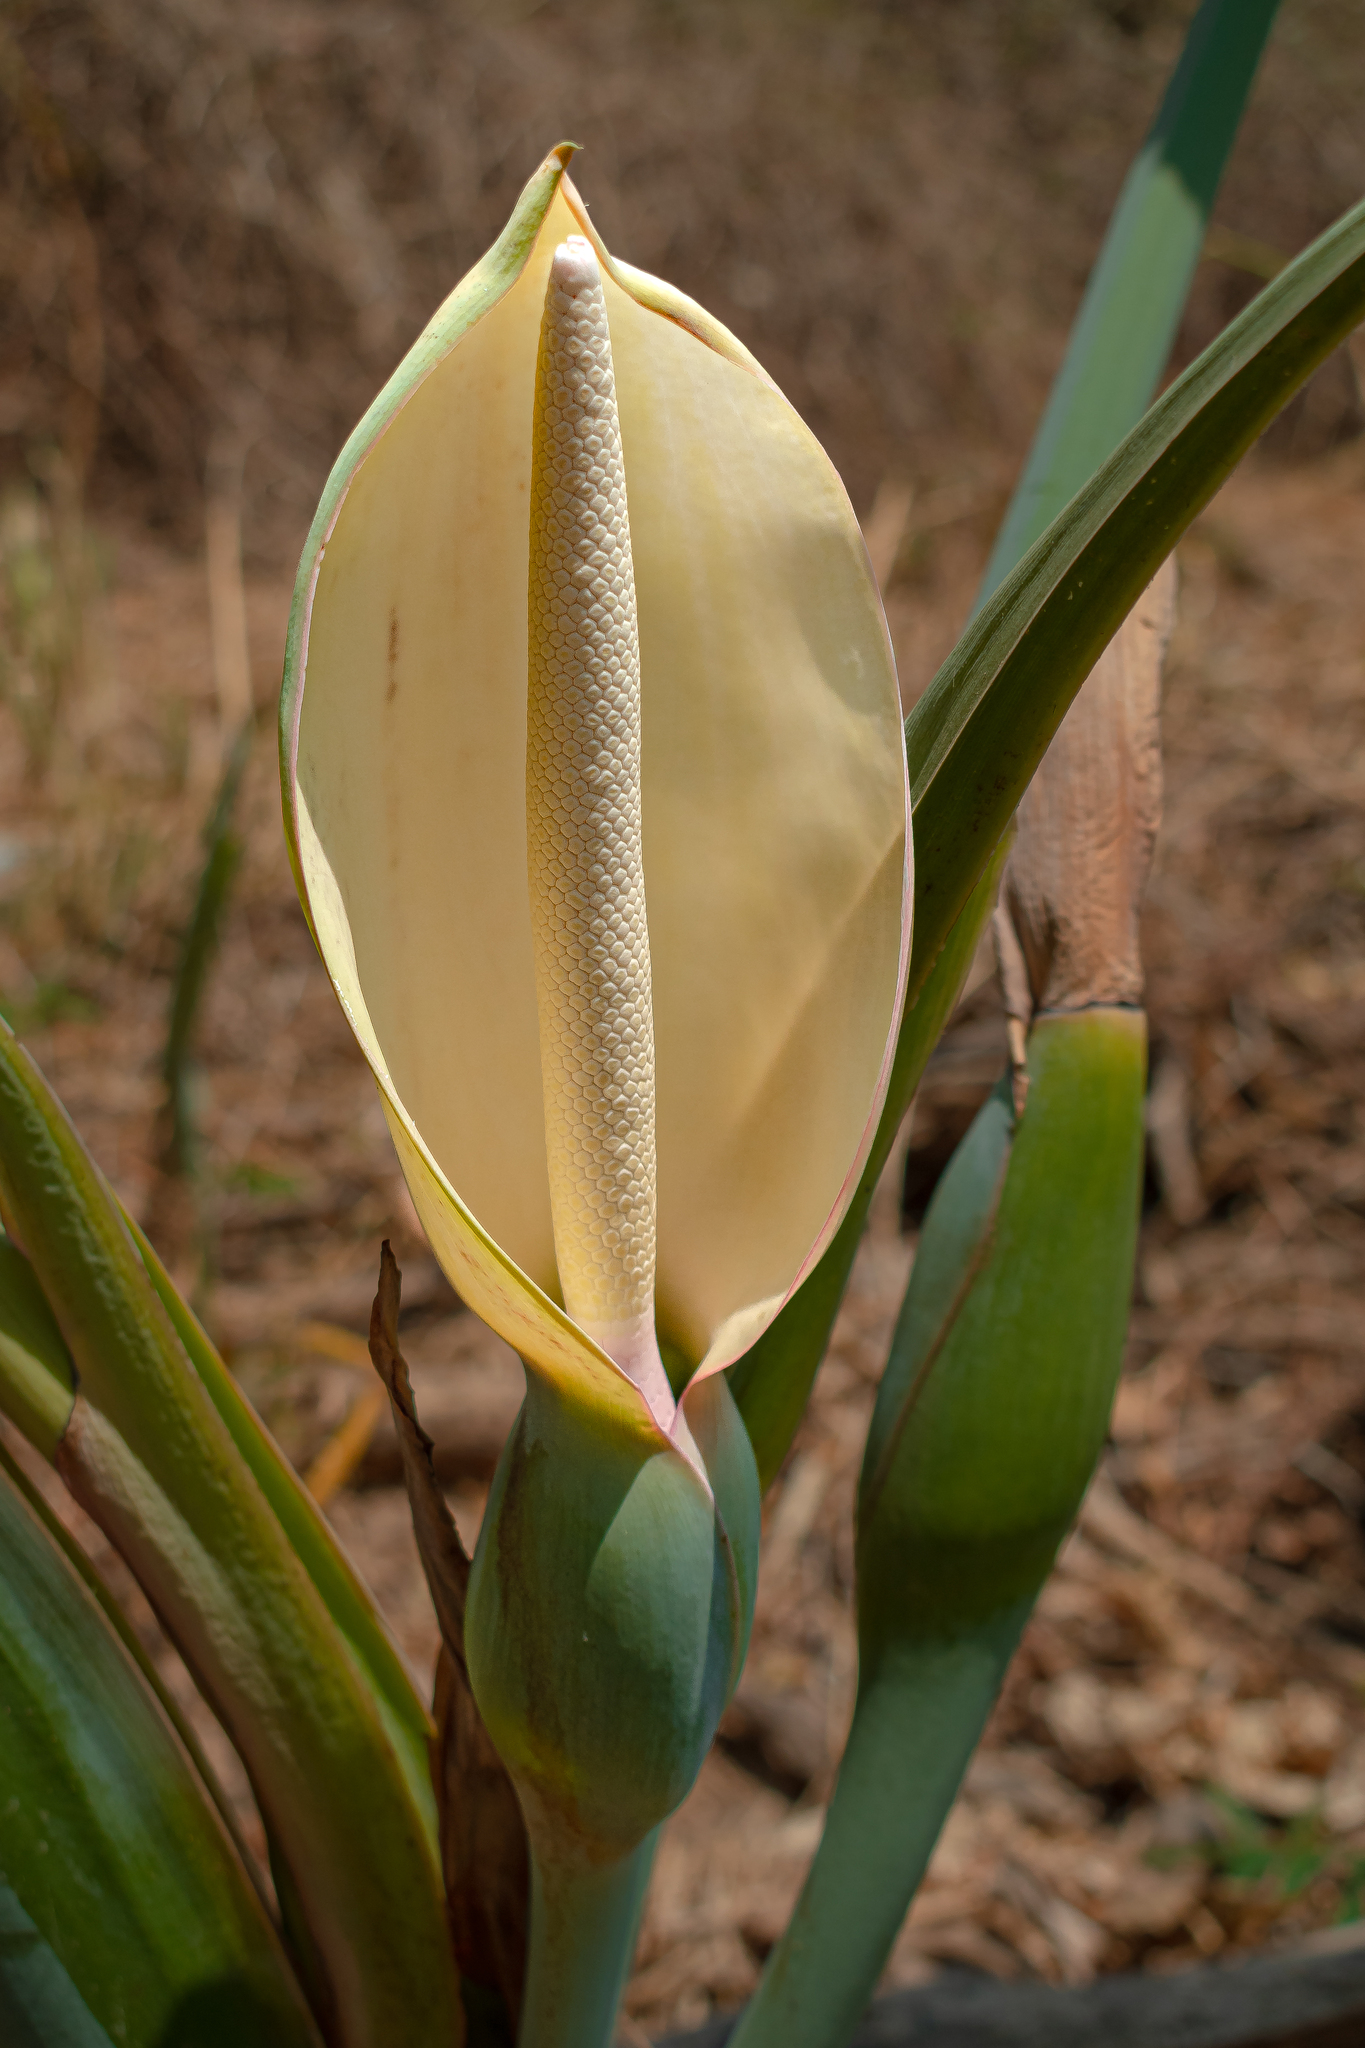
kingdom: Plantae
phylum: Tracheophyta
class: Liliopsida
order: Alismatales
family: Araceae
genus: Xanthosoma
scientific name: Xanthosoma sagittifolium
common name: Arrowleaf elephant's ear
